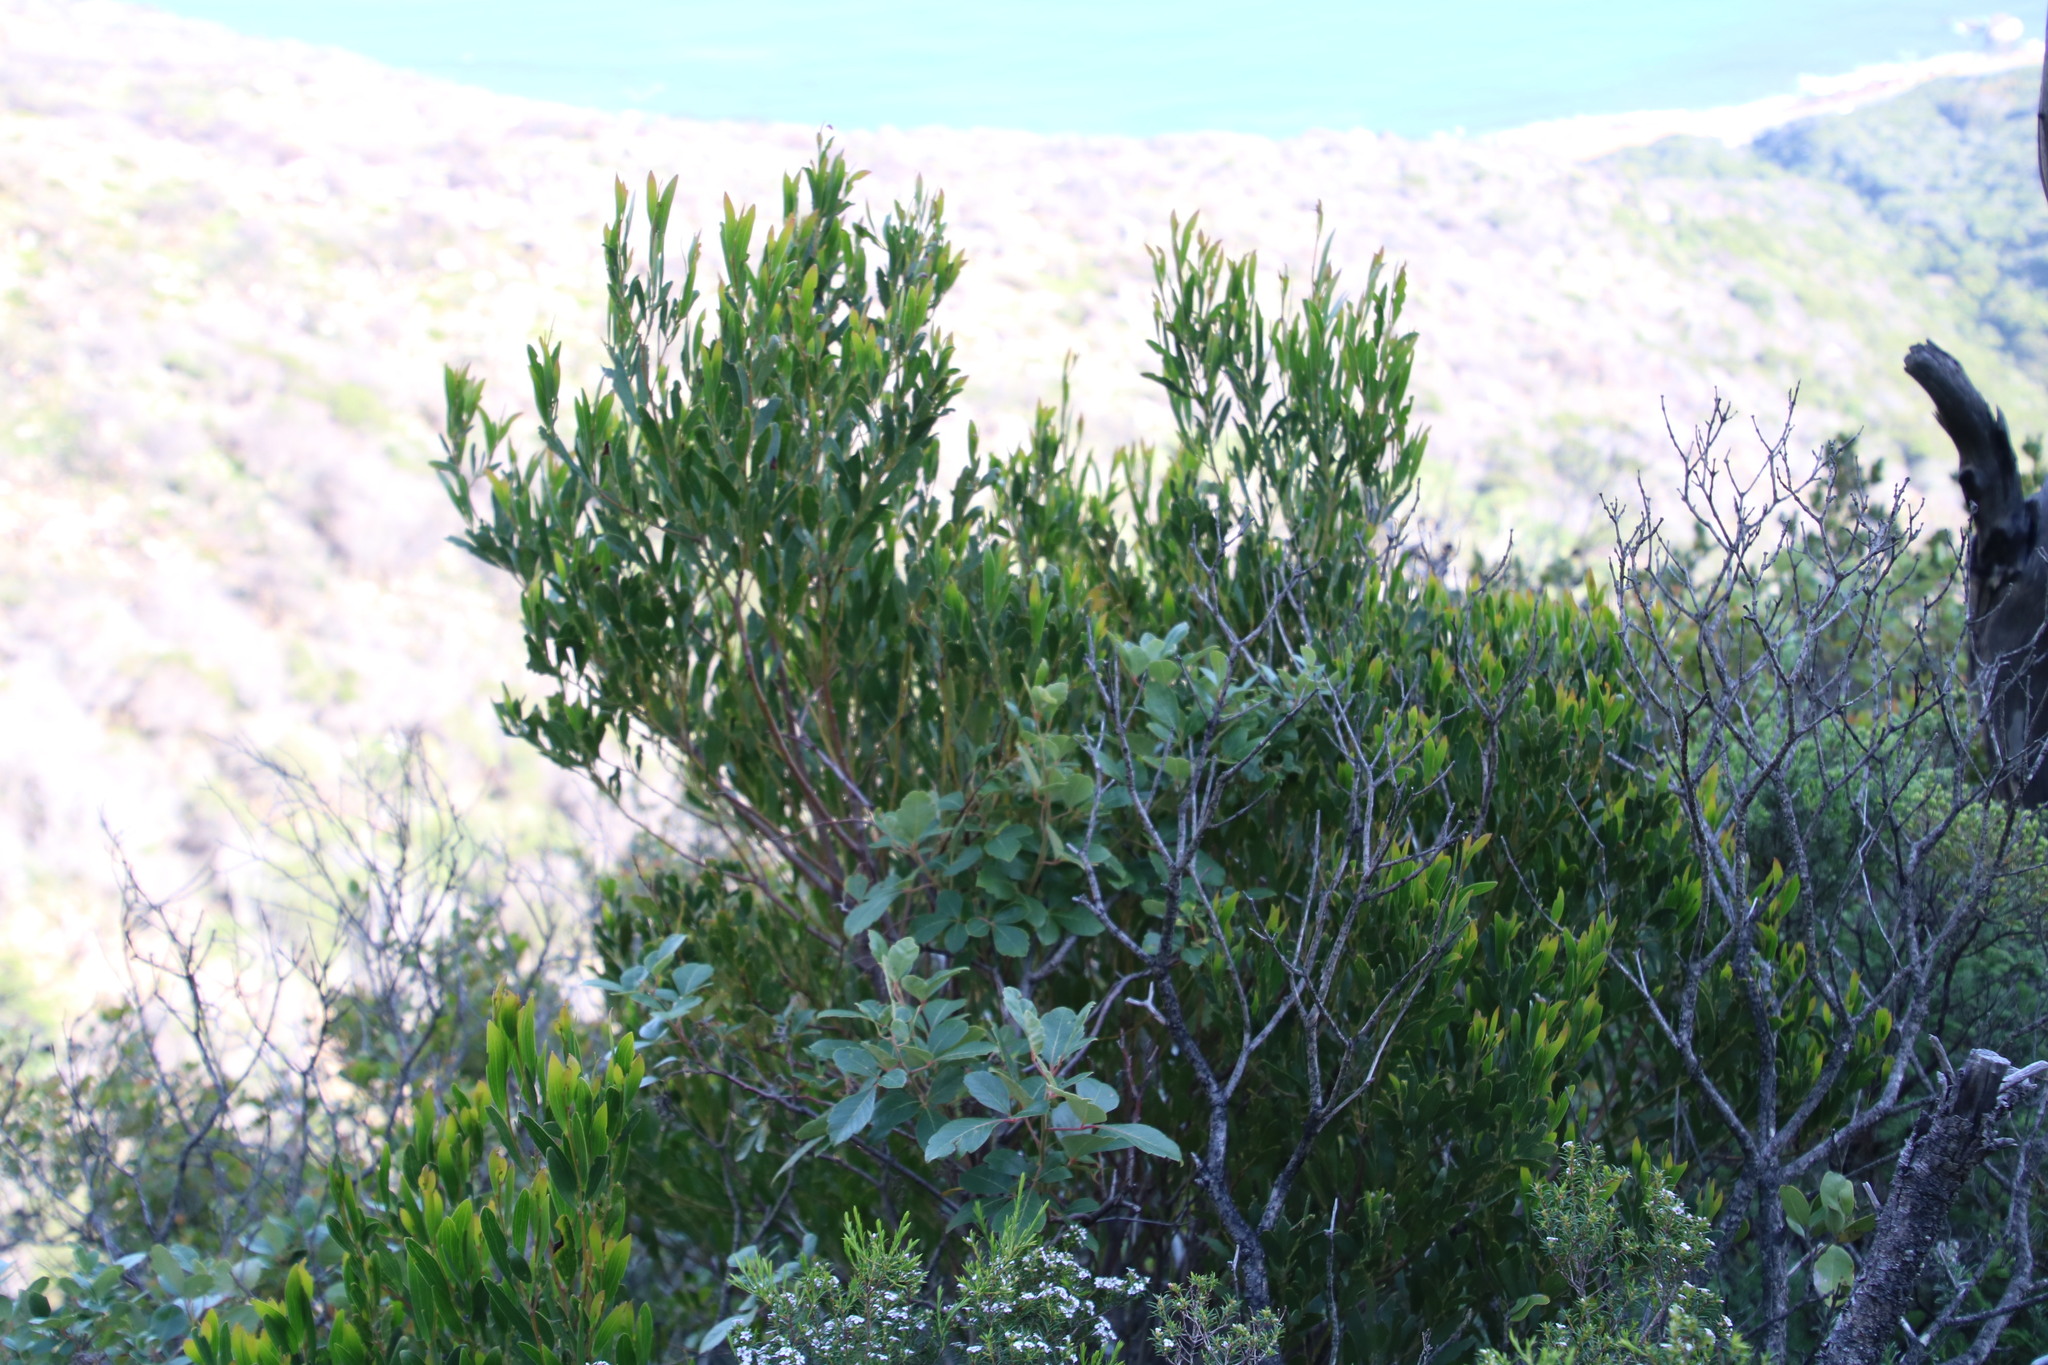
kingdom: Plantae
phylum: Tracheophyta
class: Magnoliopsida
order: Sapindales
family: Anacardiaceae
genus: Searsia
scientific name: Searsia tomentosa
